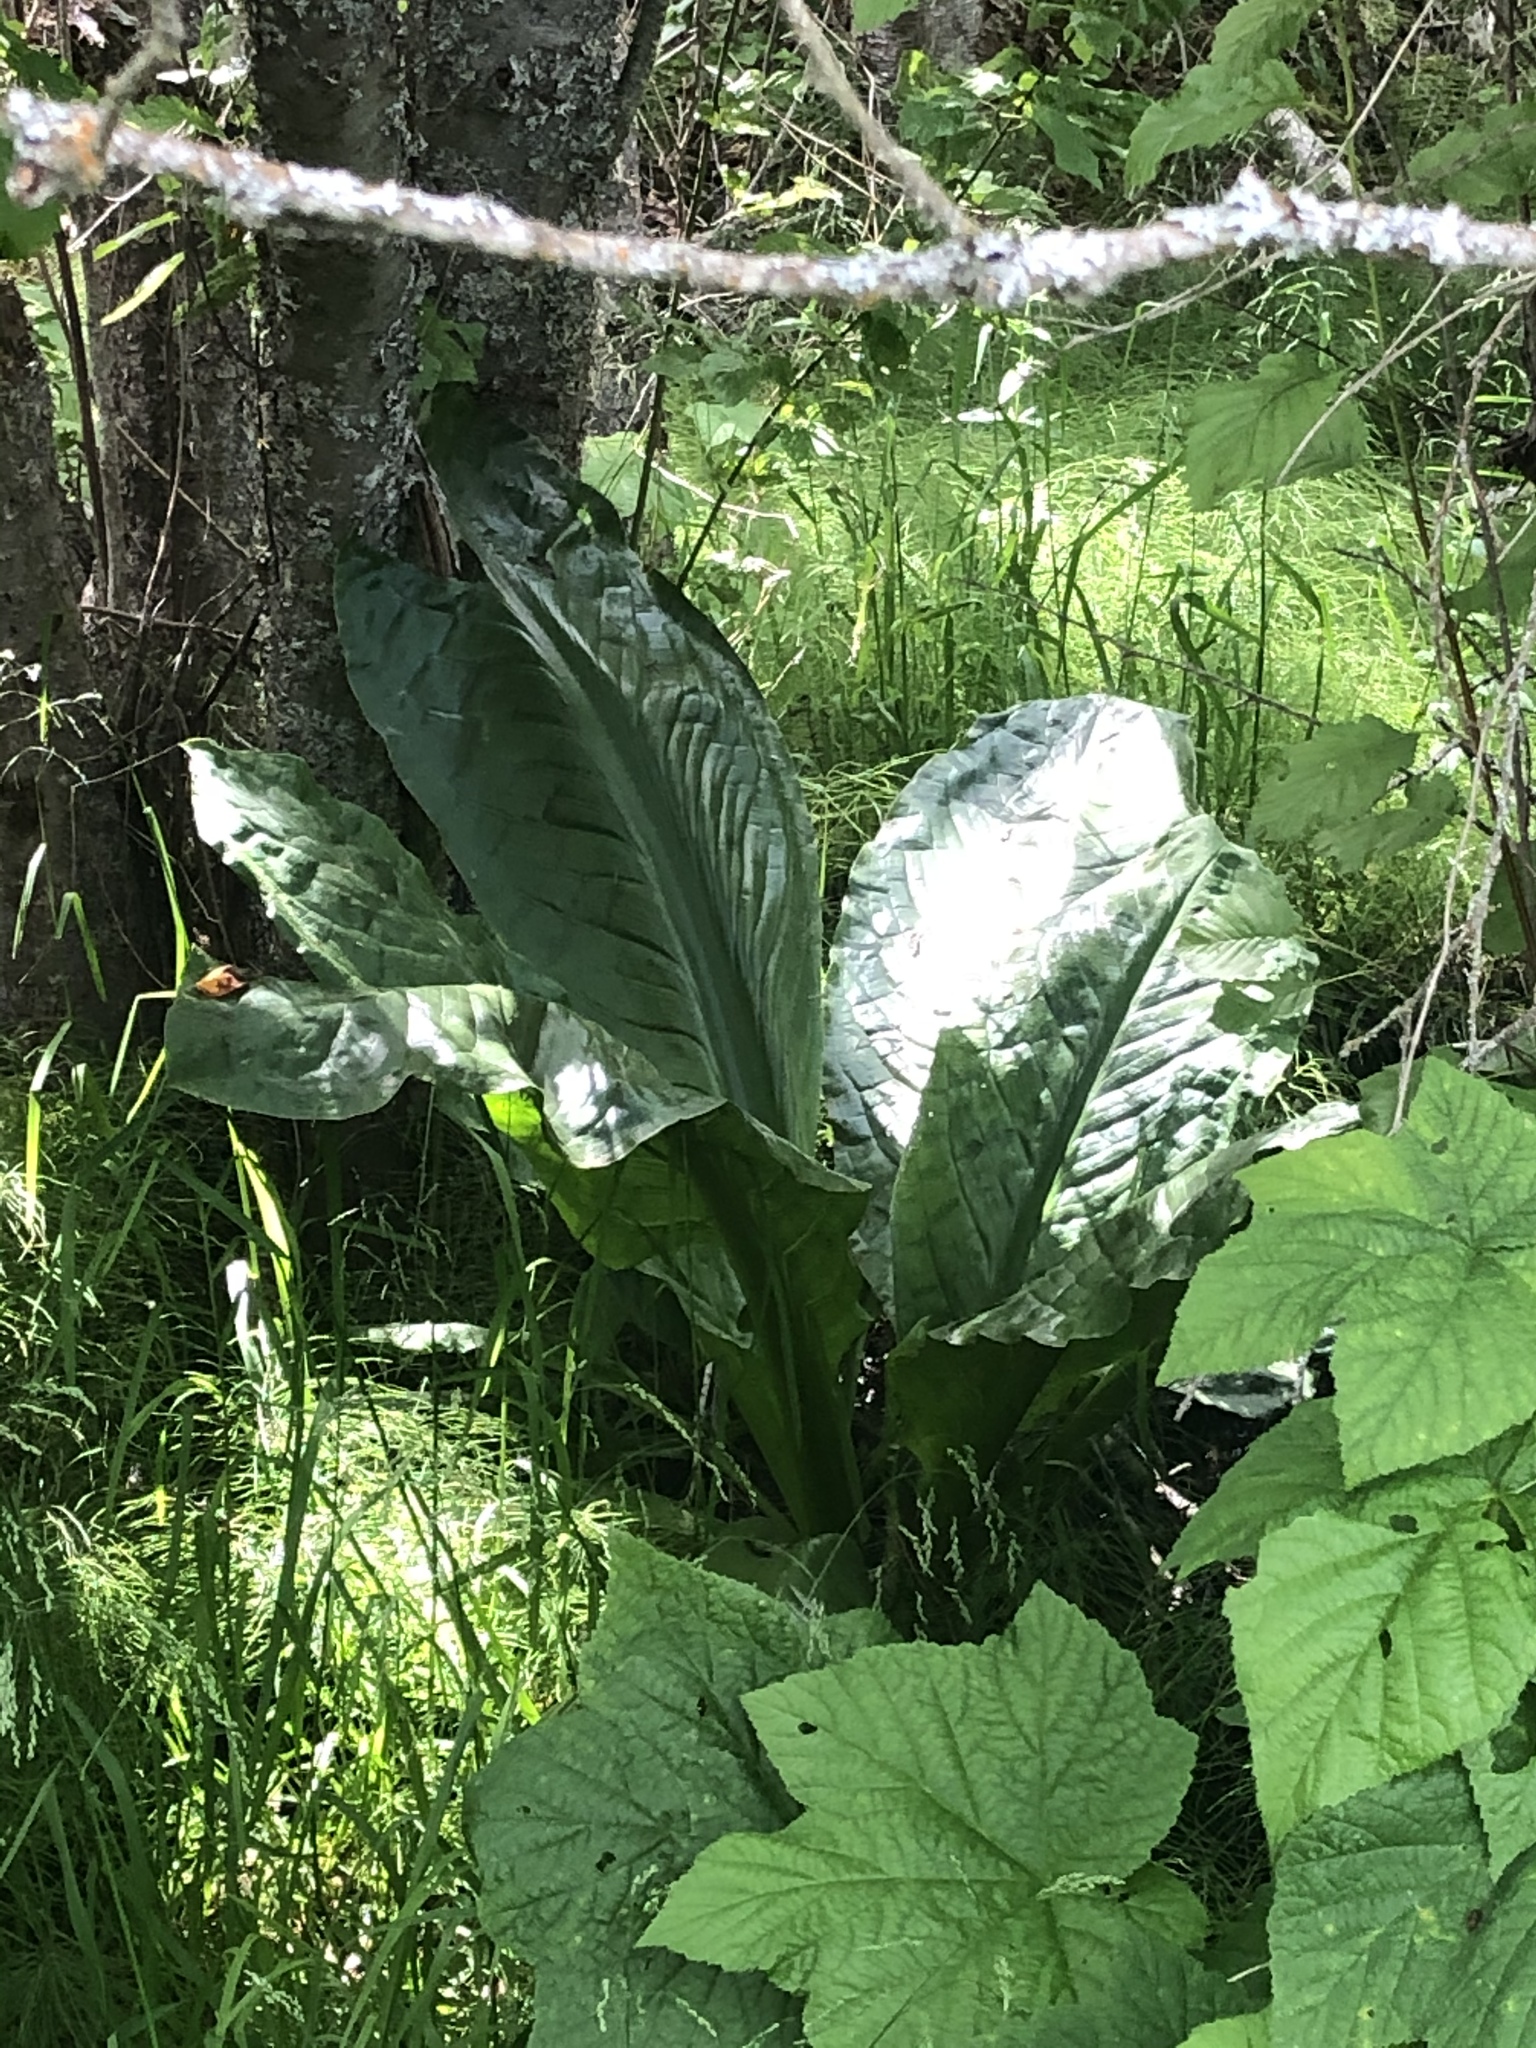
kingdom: Plantae
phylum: Tracheophyta
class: Liliopsida
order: Alismatales
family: Araceae
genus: Lysichiton
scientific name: Lysichiton americanus
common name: American skunk cabbage
